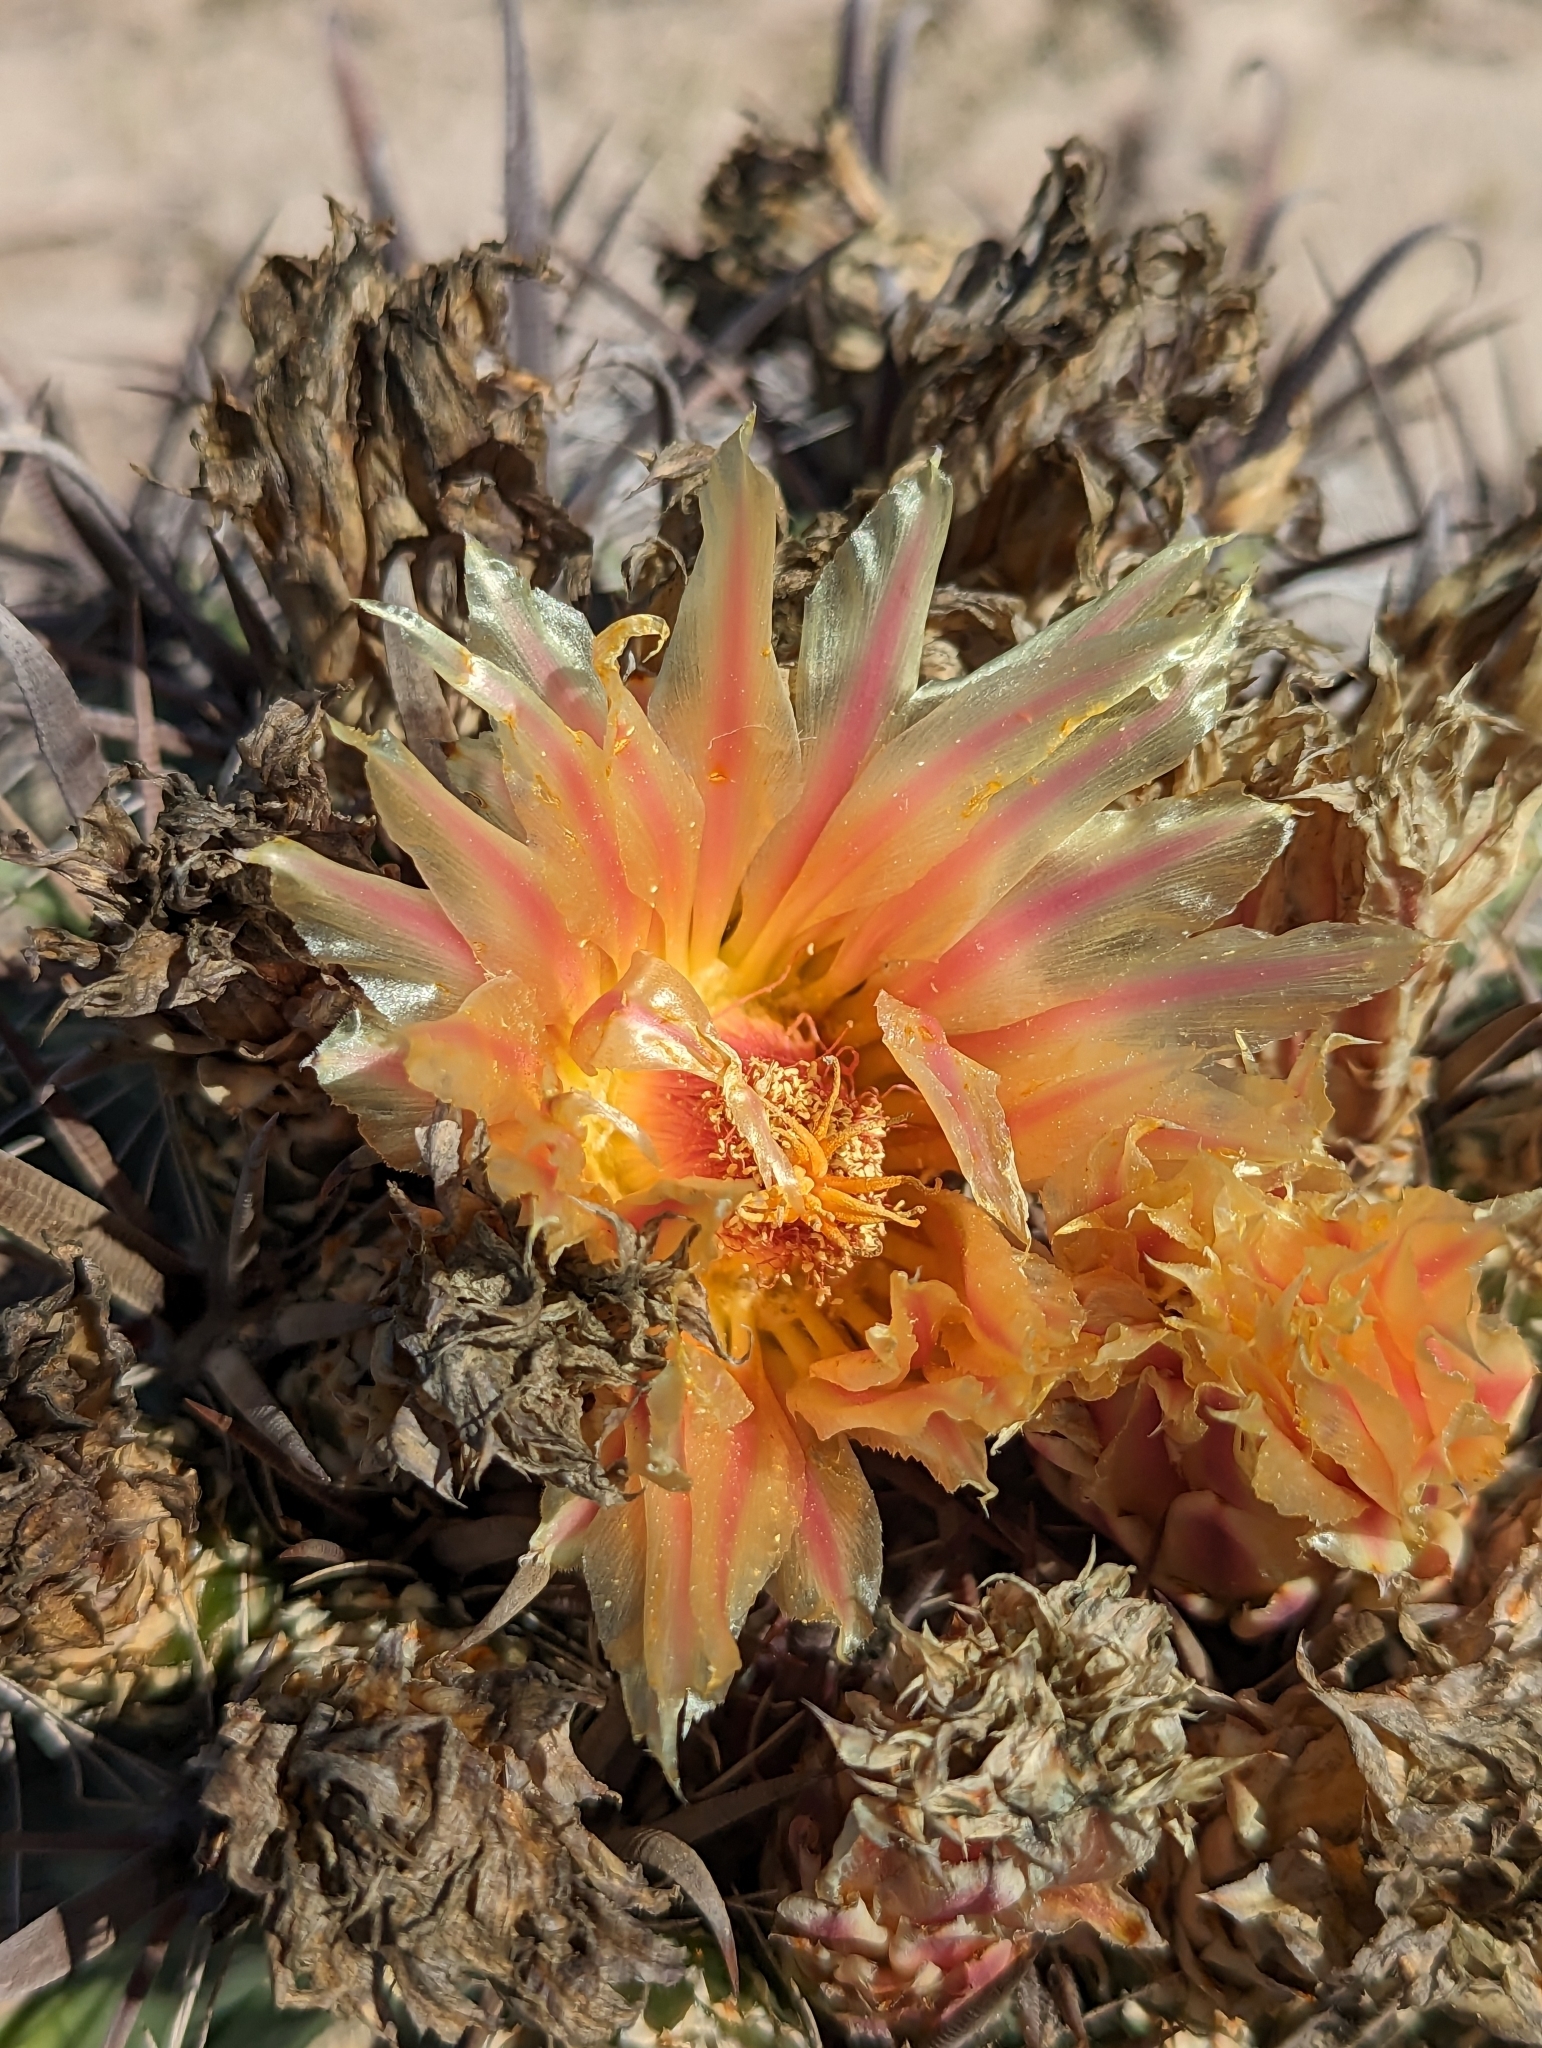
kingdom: Plantae
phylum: Tracheophyta
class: Magnoliopsida
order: Caryophyllales
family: Cactaceae
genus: Ferocactus
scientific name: Ferocactus santa-maria
